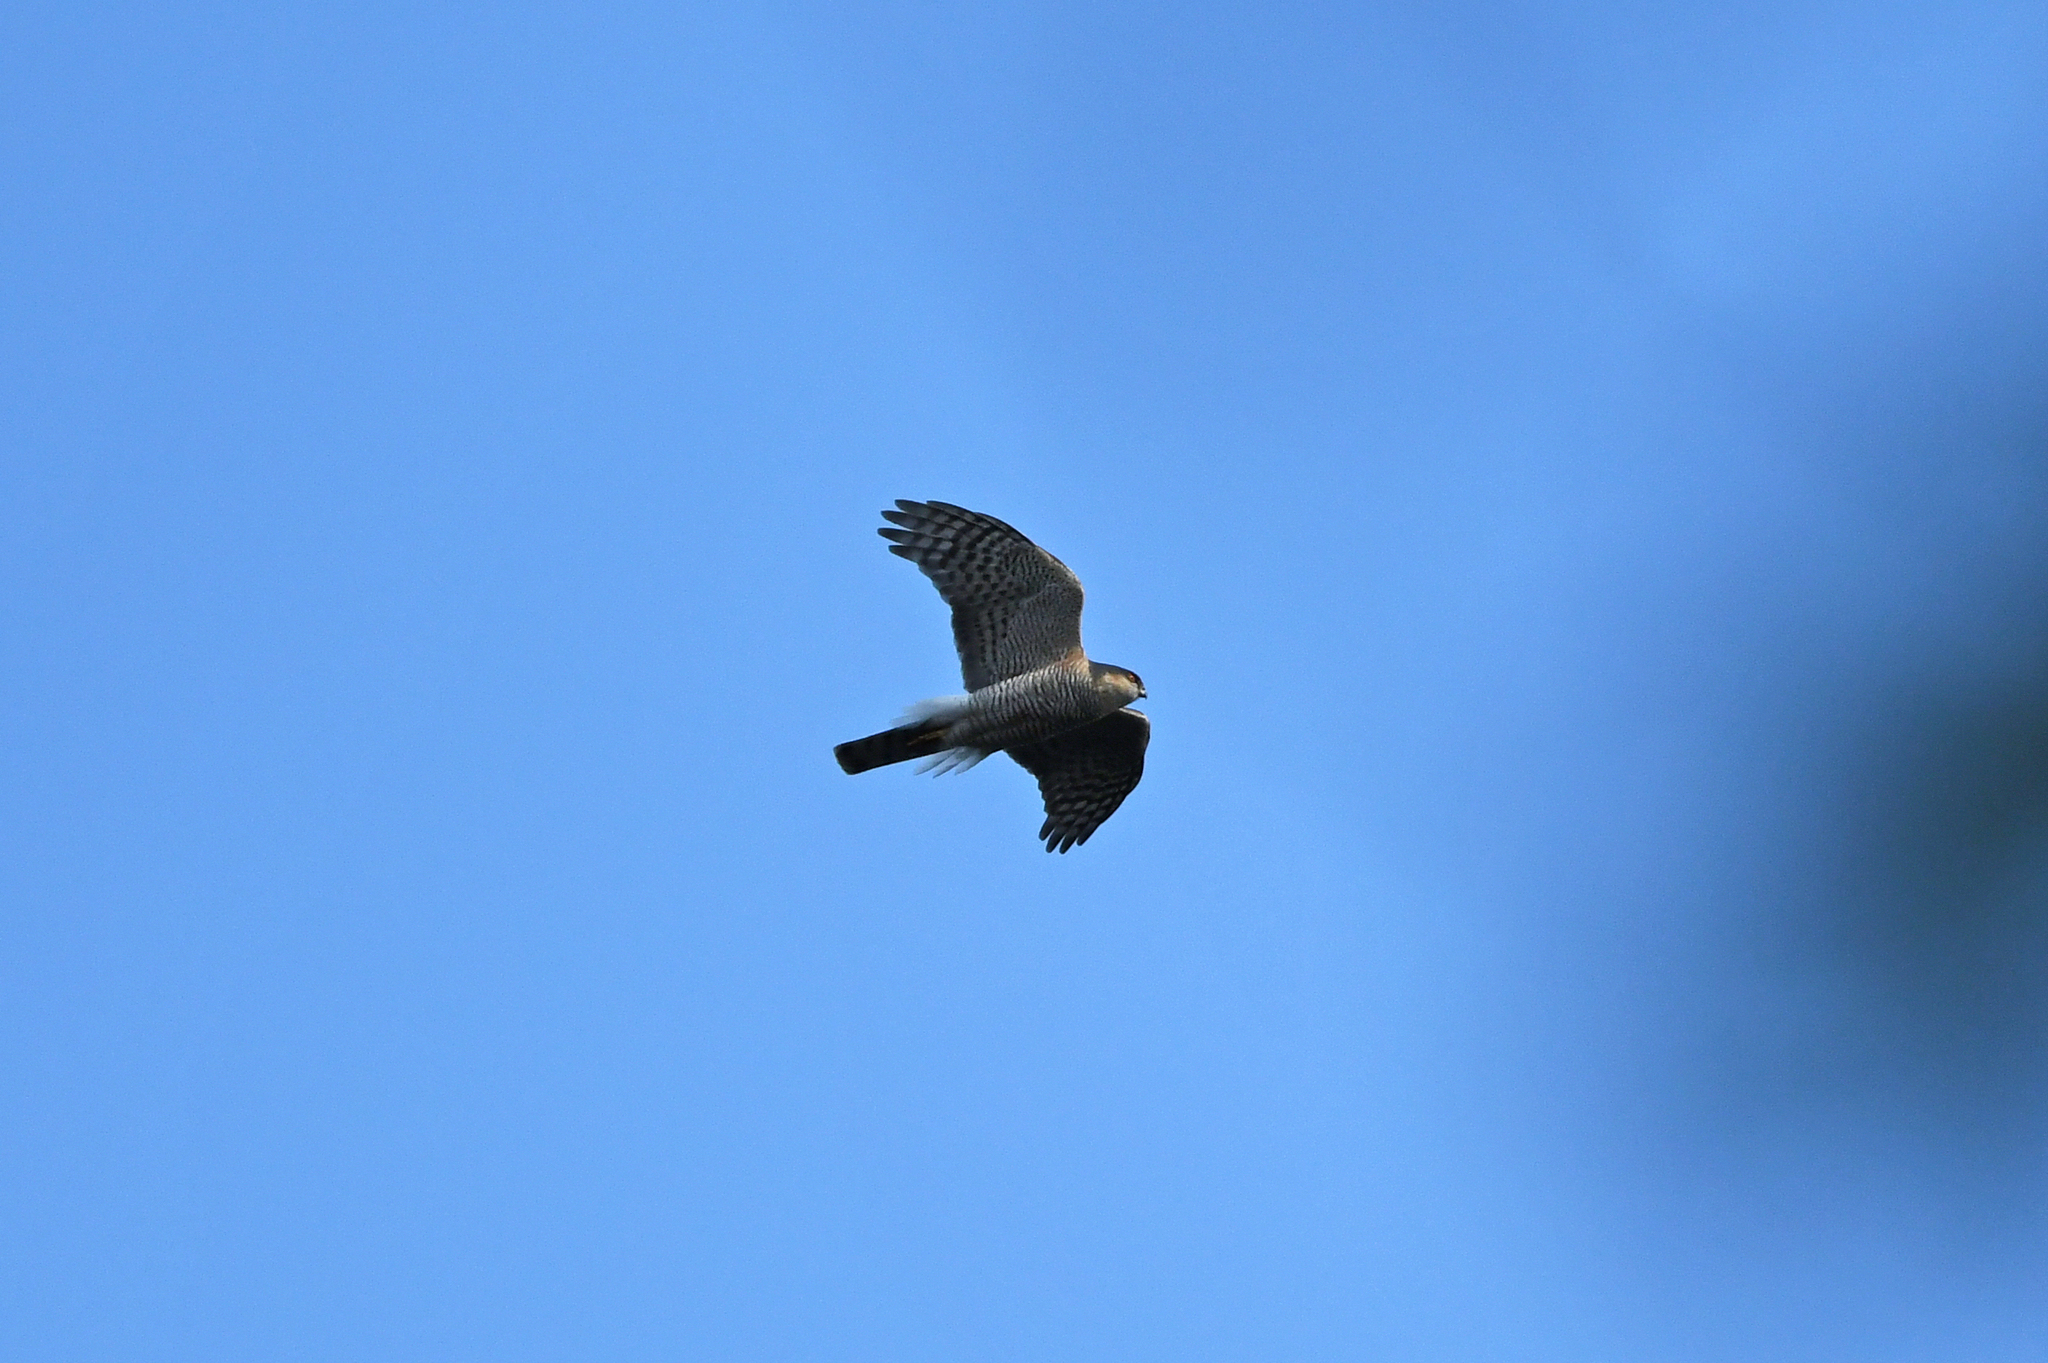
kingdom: Animalia
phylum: Chordata
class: Aves
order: Accipitriformes
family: Accipitridae
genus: Accipiter
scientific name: Accipiter nisus
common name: Eurasian sparrowhawk
